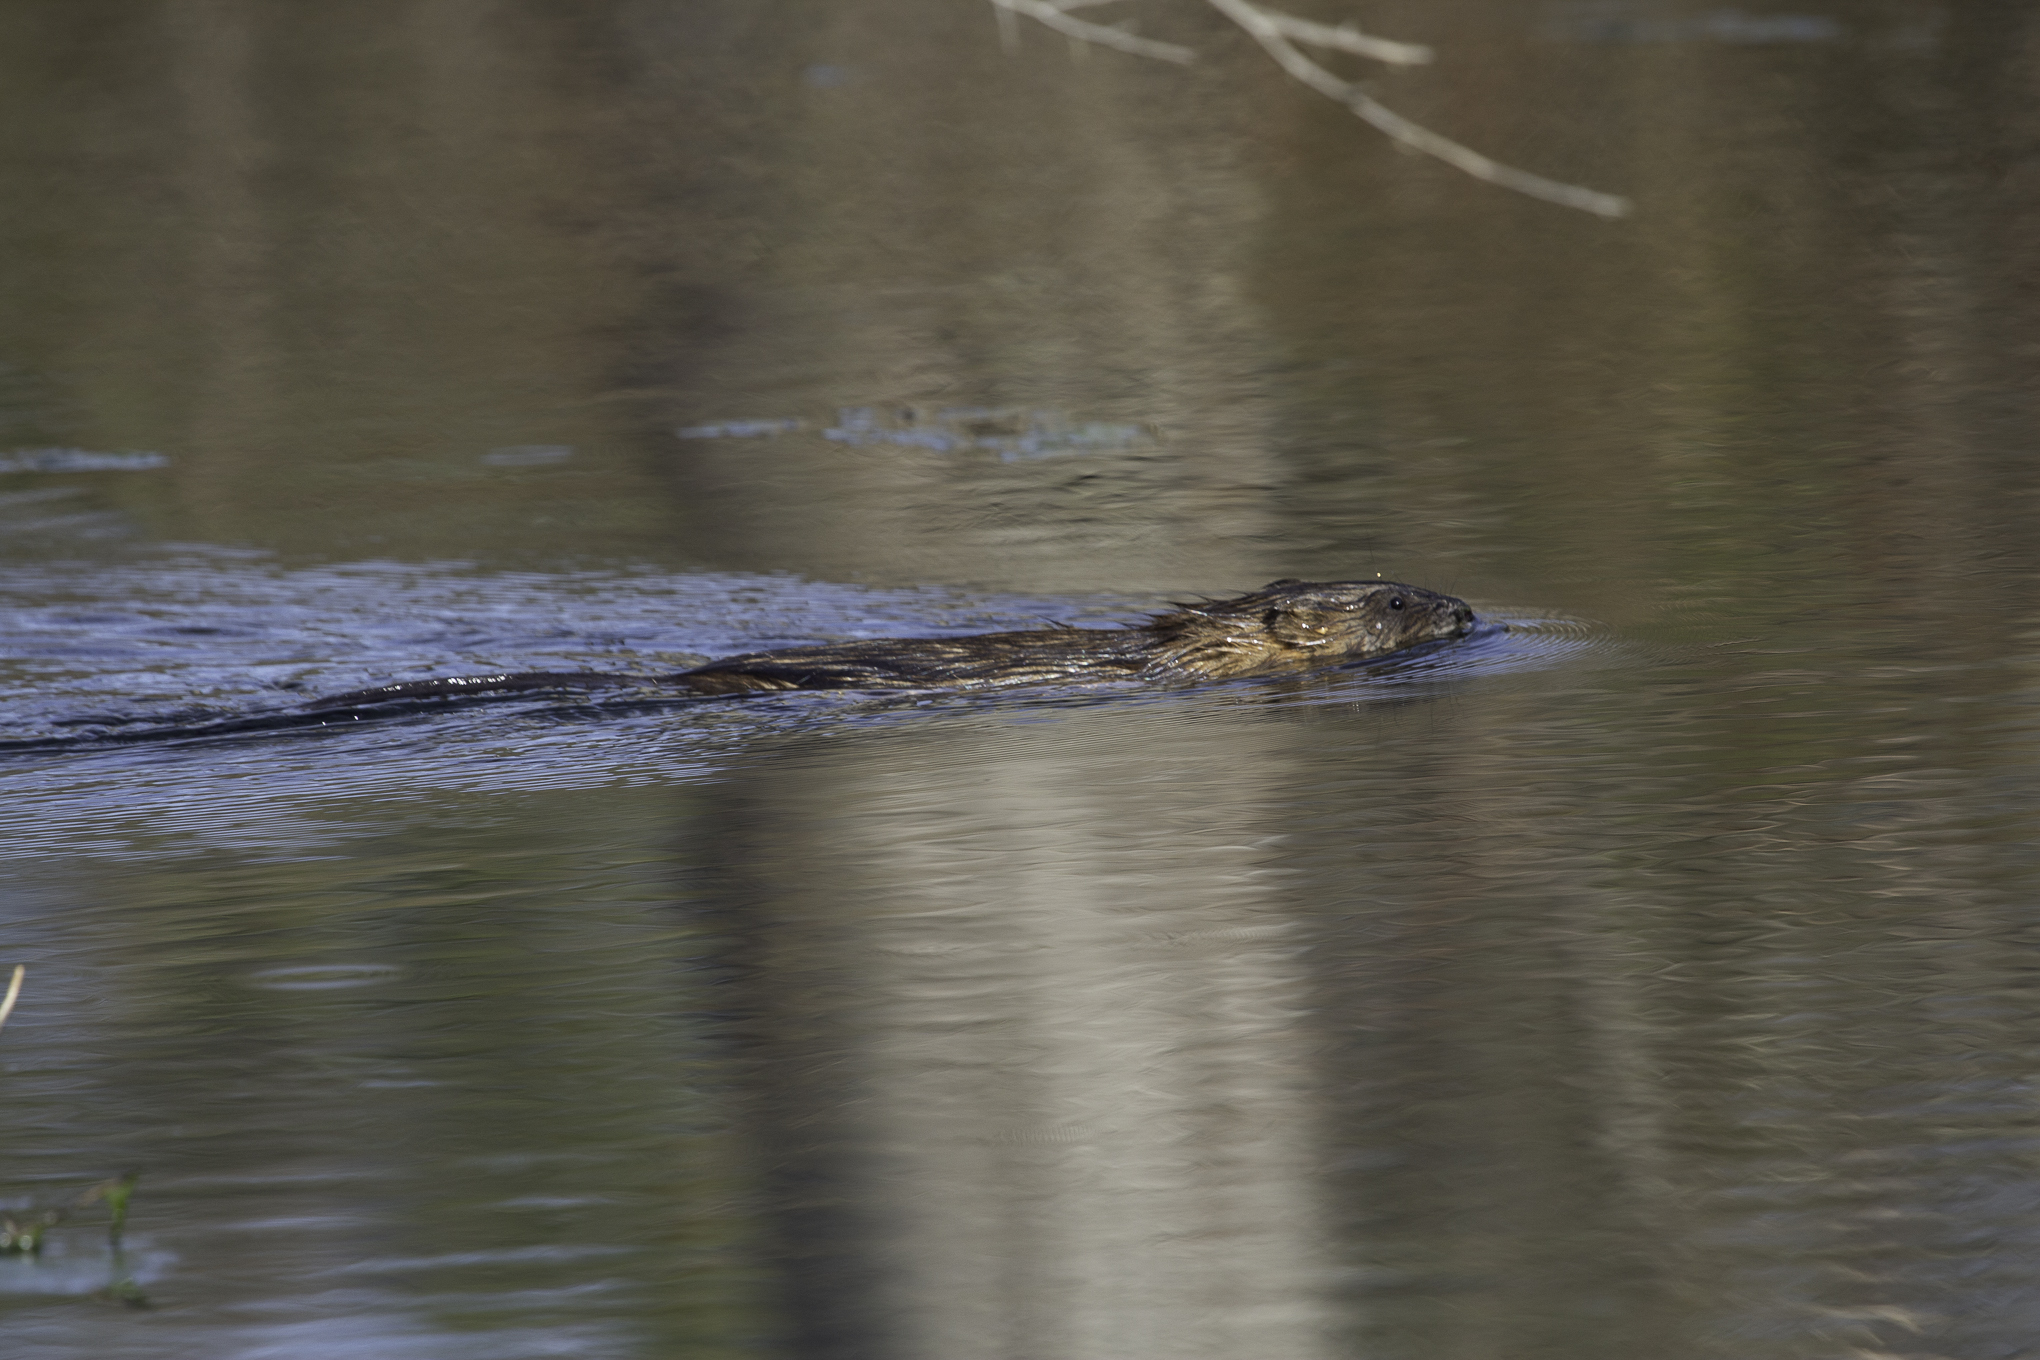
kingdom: Animalia
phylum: Chordata
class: Mammalia
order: Rodentia
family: Cricetidae
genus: Ondatra
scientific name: Ondatra zibethicus
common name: Muskrat
